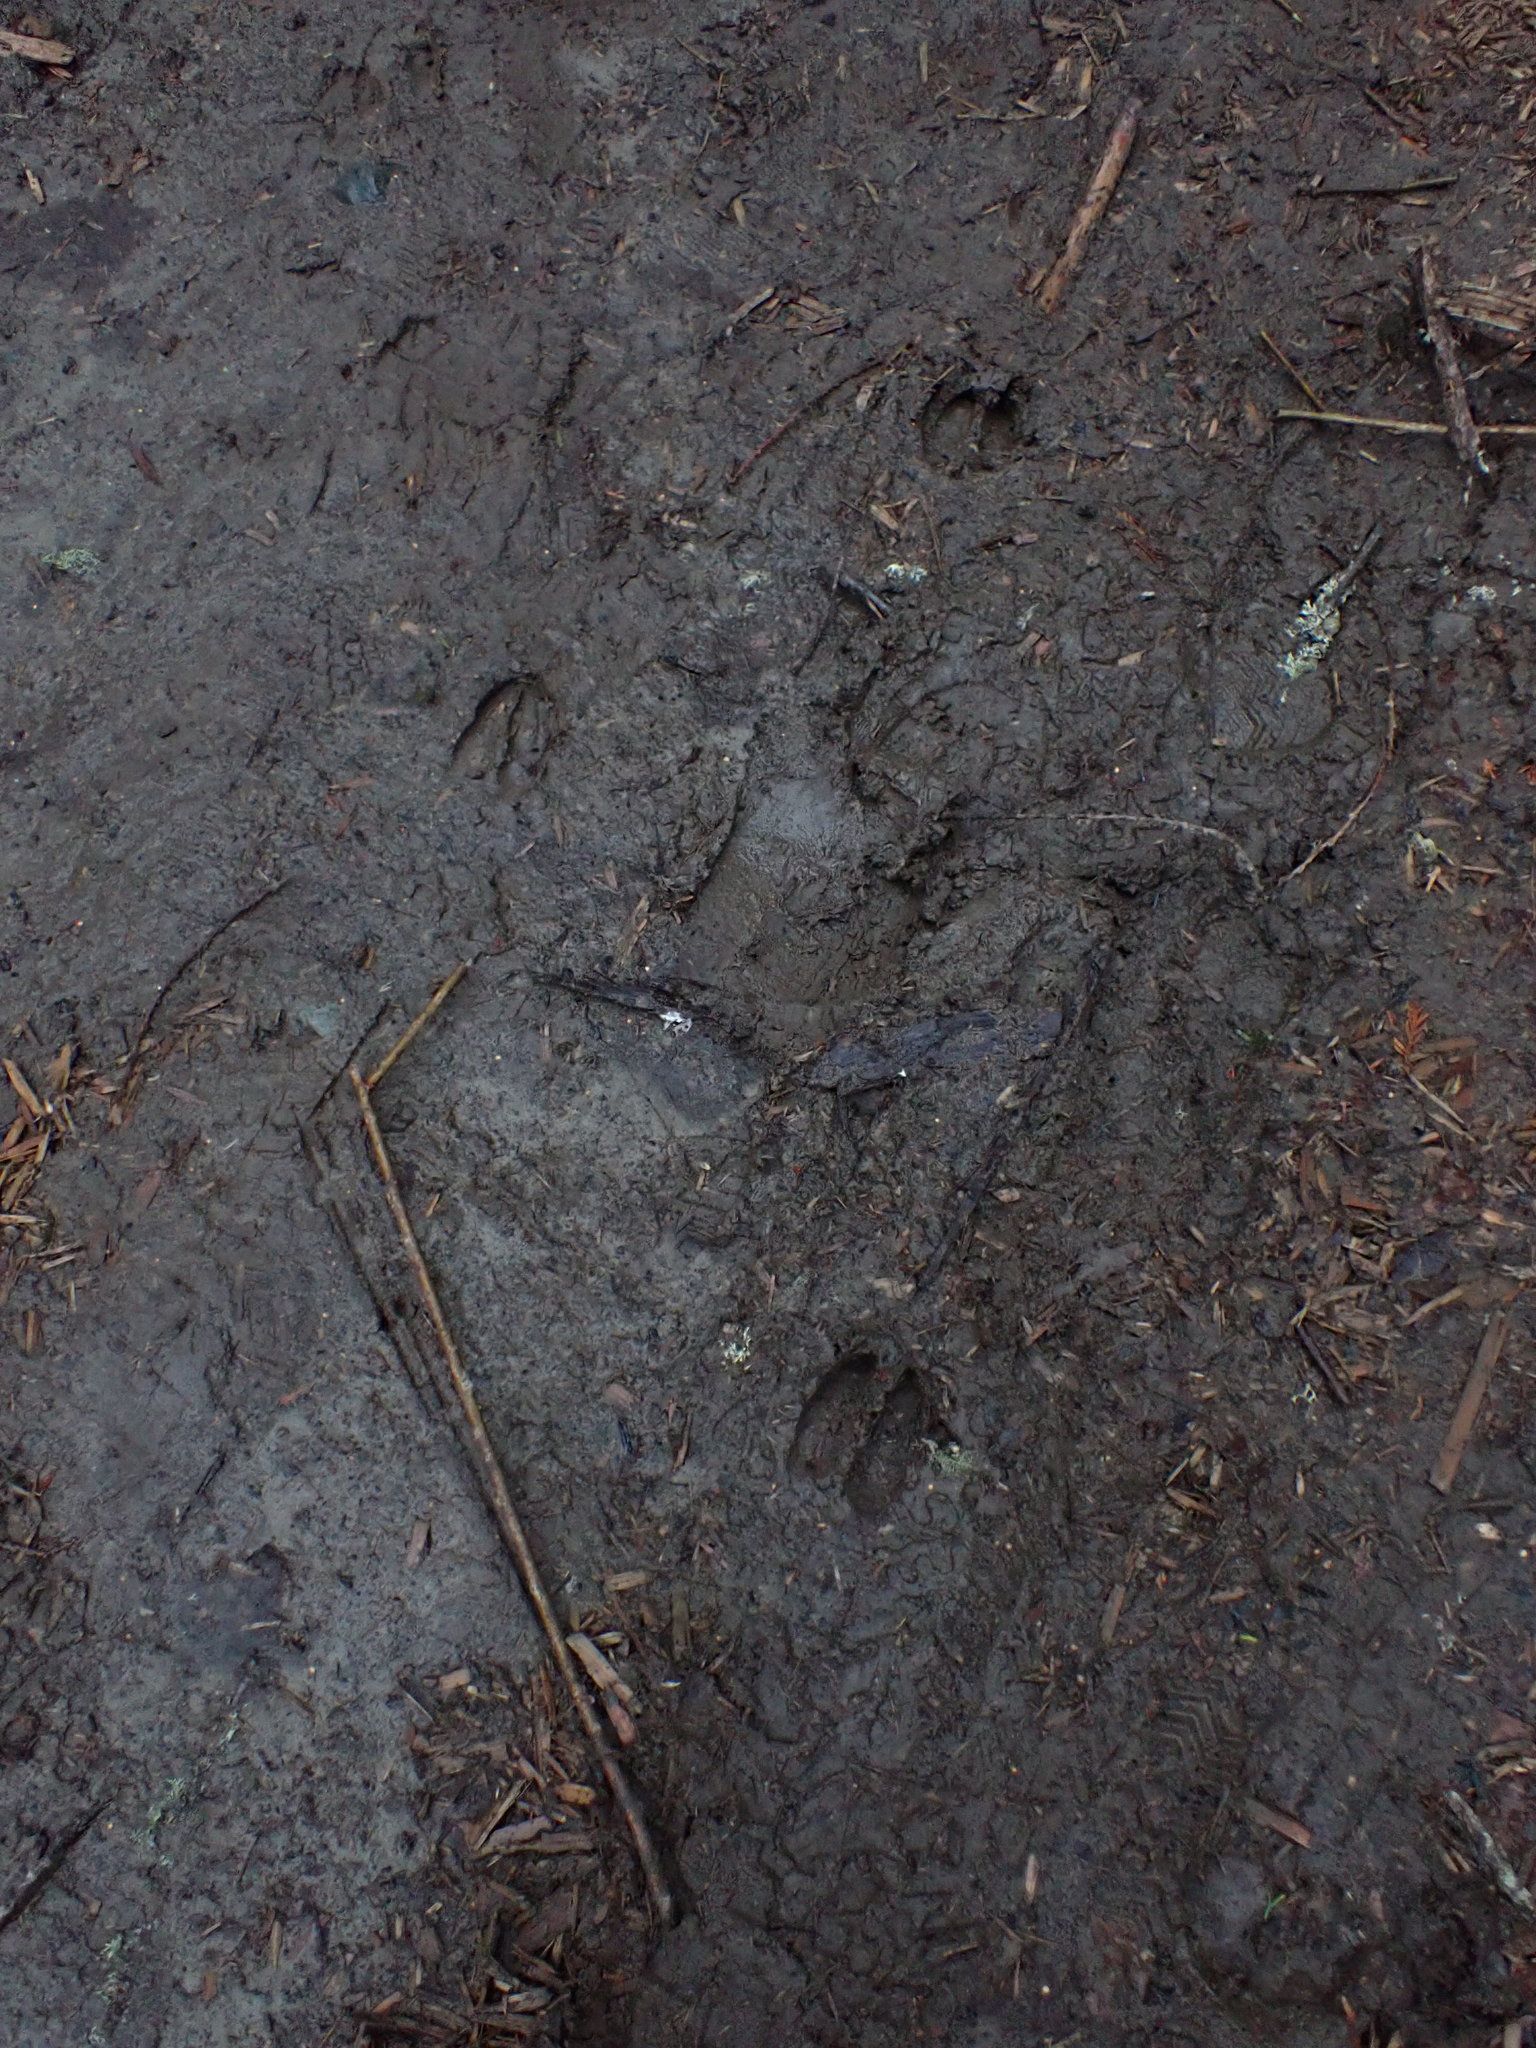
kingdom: Animalia
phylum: Chordata
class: Mammalia
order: Artiodactyla
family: Cervidae
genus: Odocoileus
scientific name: Odocoileus hemionus
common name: Mule deer
